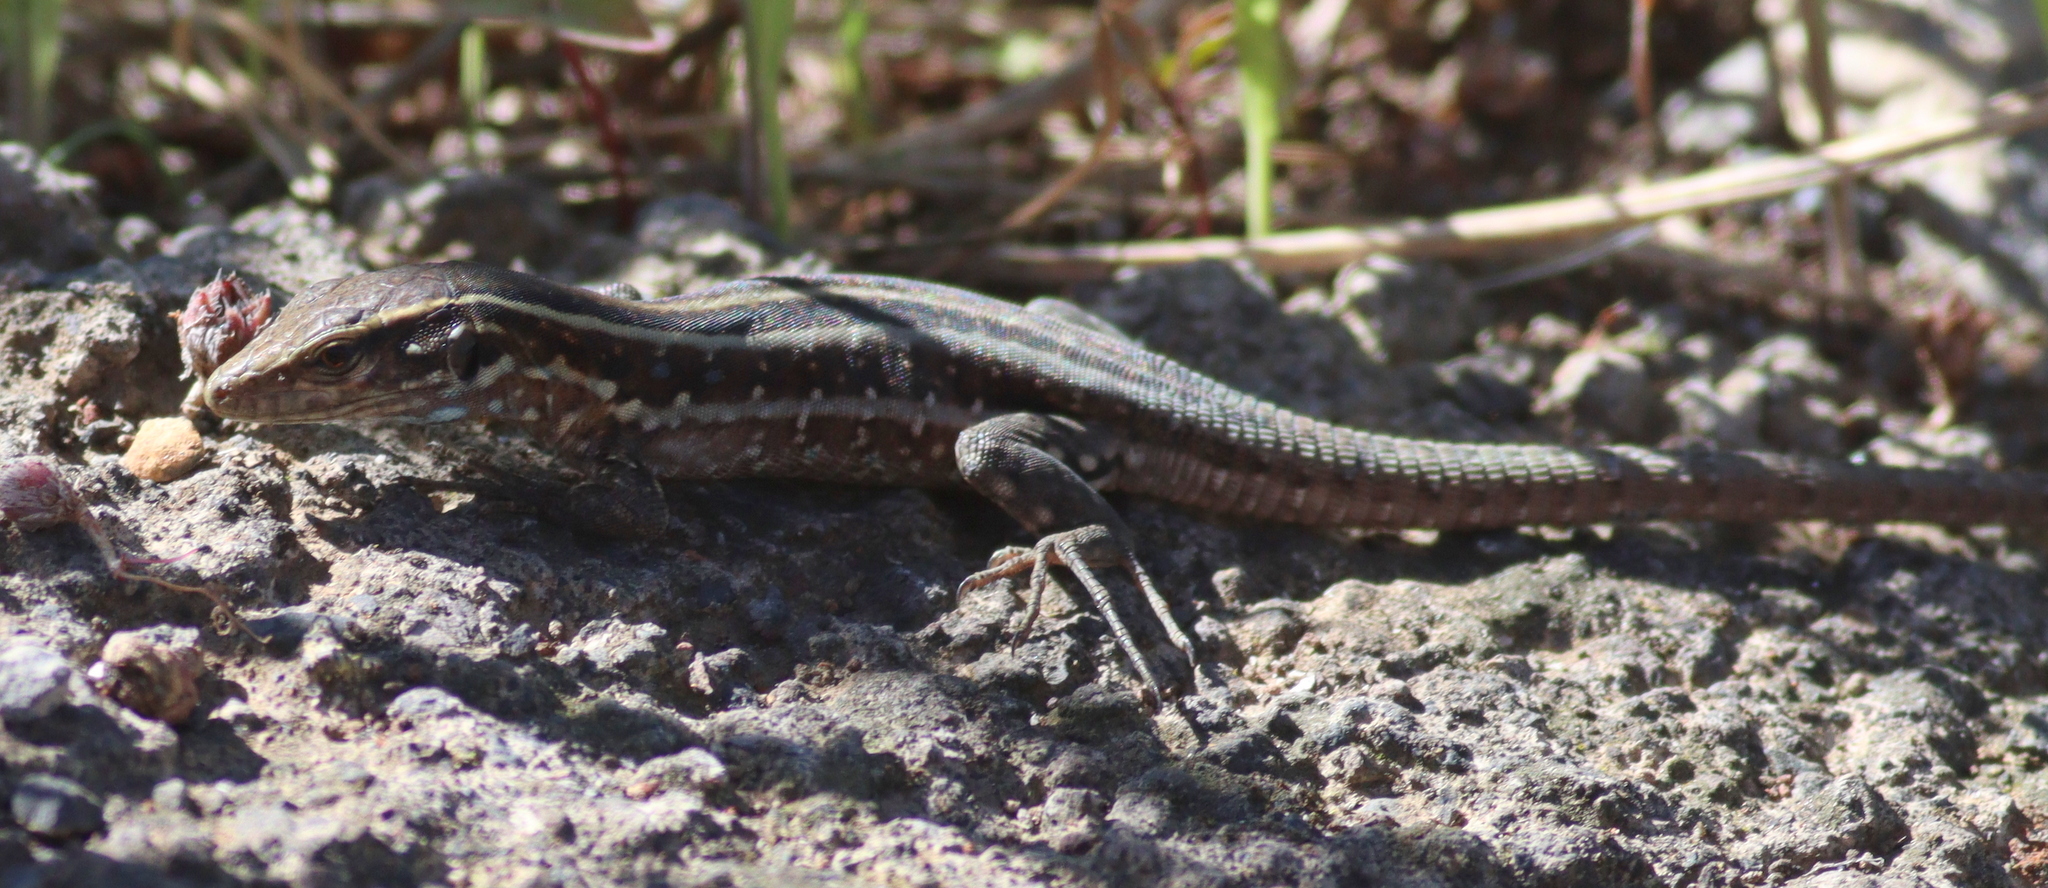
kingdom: Animalia
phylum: Chordata
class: Squamata
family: Lacertidae
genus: Gallotia
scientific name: Gallotia galloti
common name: Gallot's lizard
